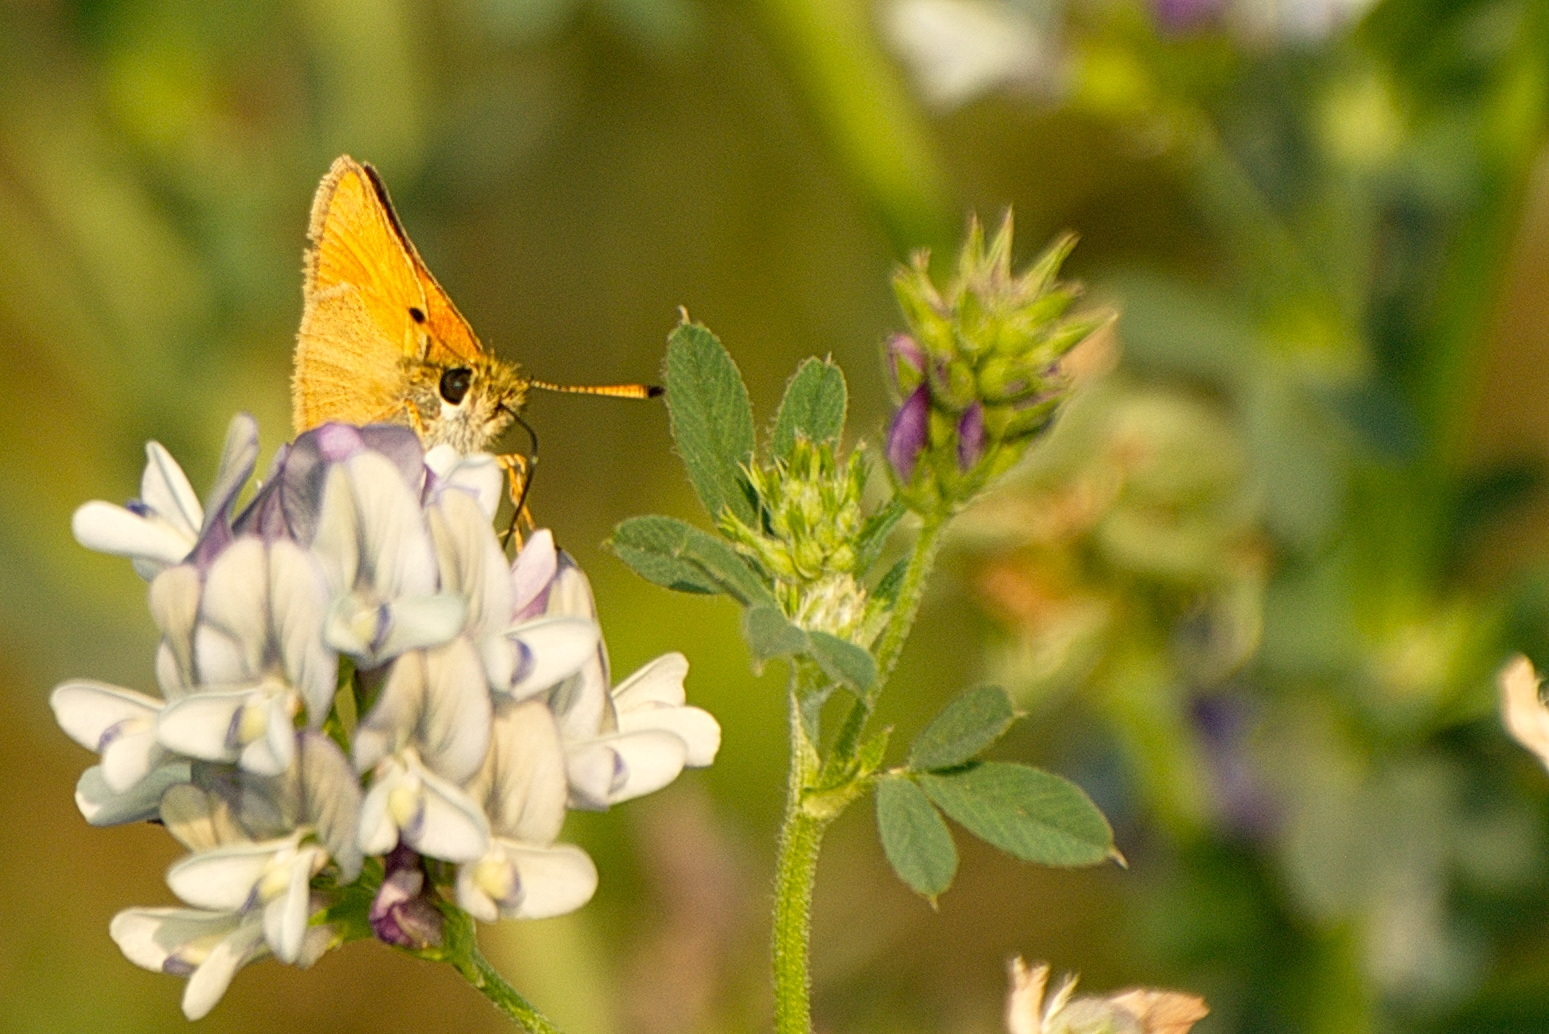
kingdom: Animalia
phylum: Arthropoda
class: Insecta
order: Lepidoptera
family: Hesperiidae
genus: Thymelicus
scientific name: Thymelicus lineola
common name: Essex skipper
